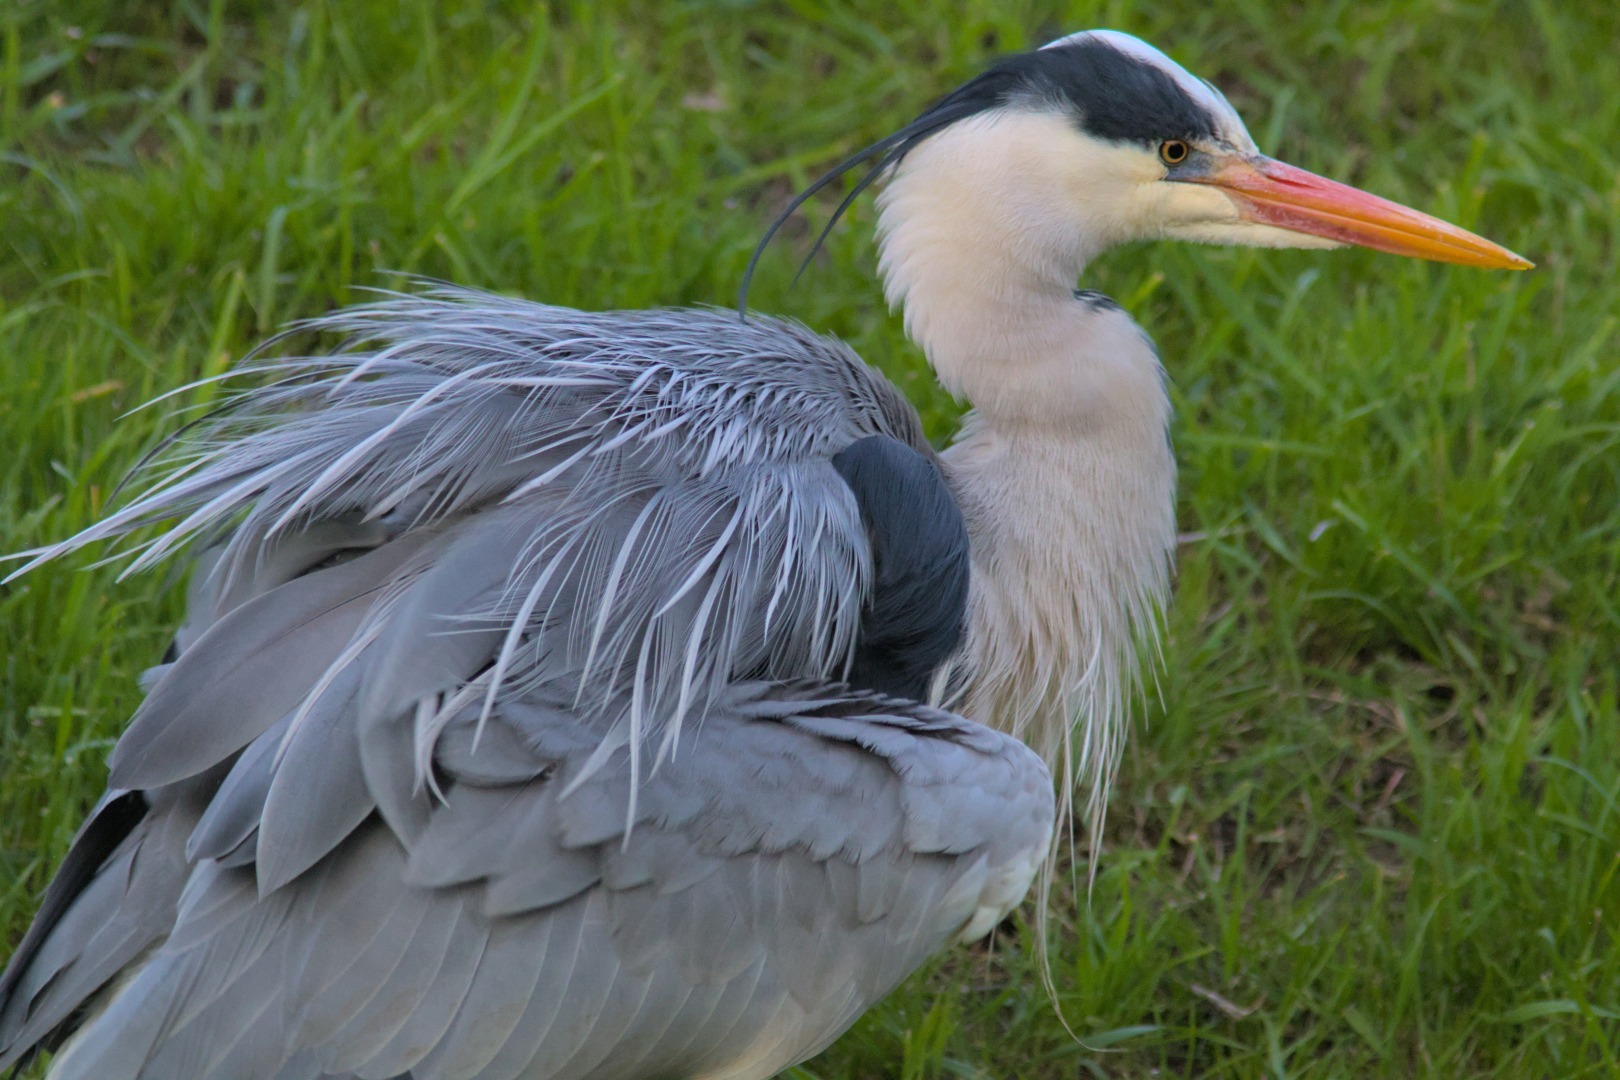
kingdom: Animalia
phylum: Chordata
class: Aves
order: Pelecaniformes
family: Ardeidae
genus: Ardea
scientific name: Ardea cinerea
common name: Grey heron
